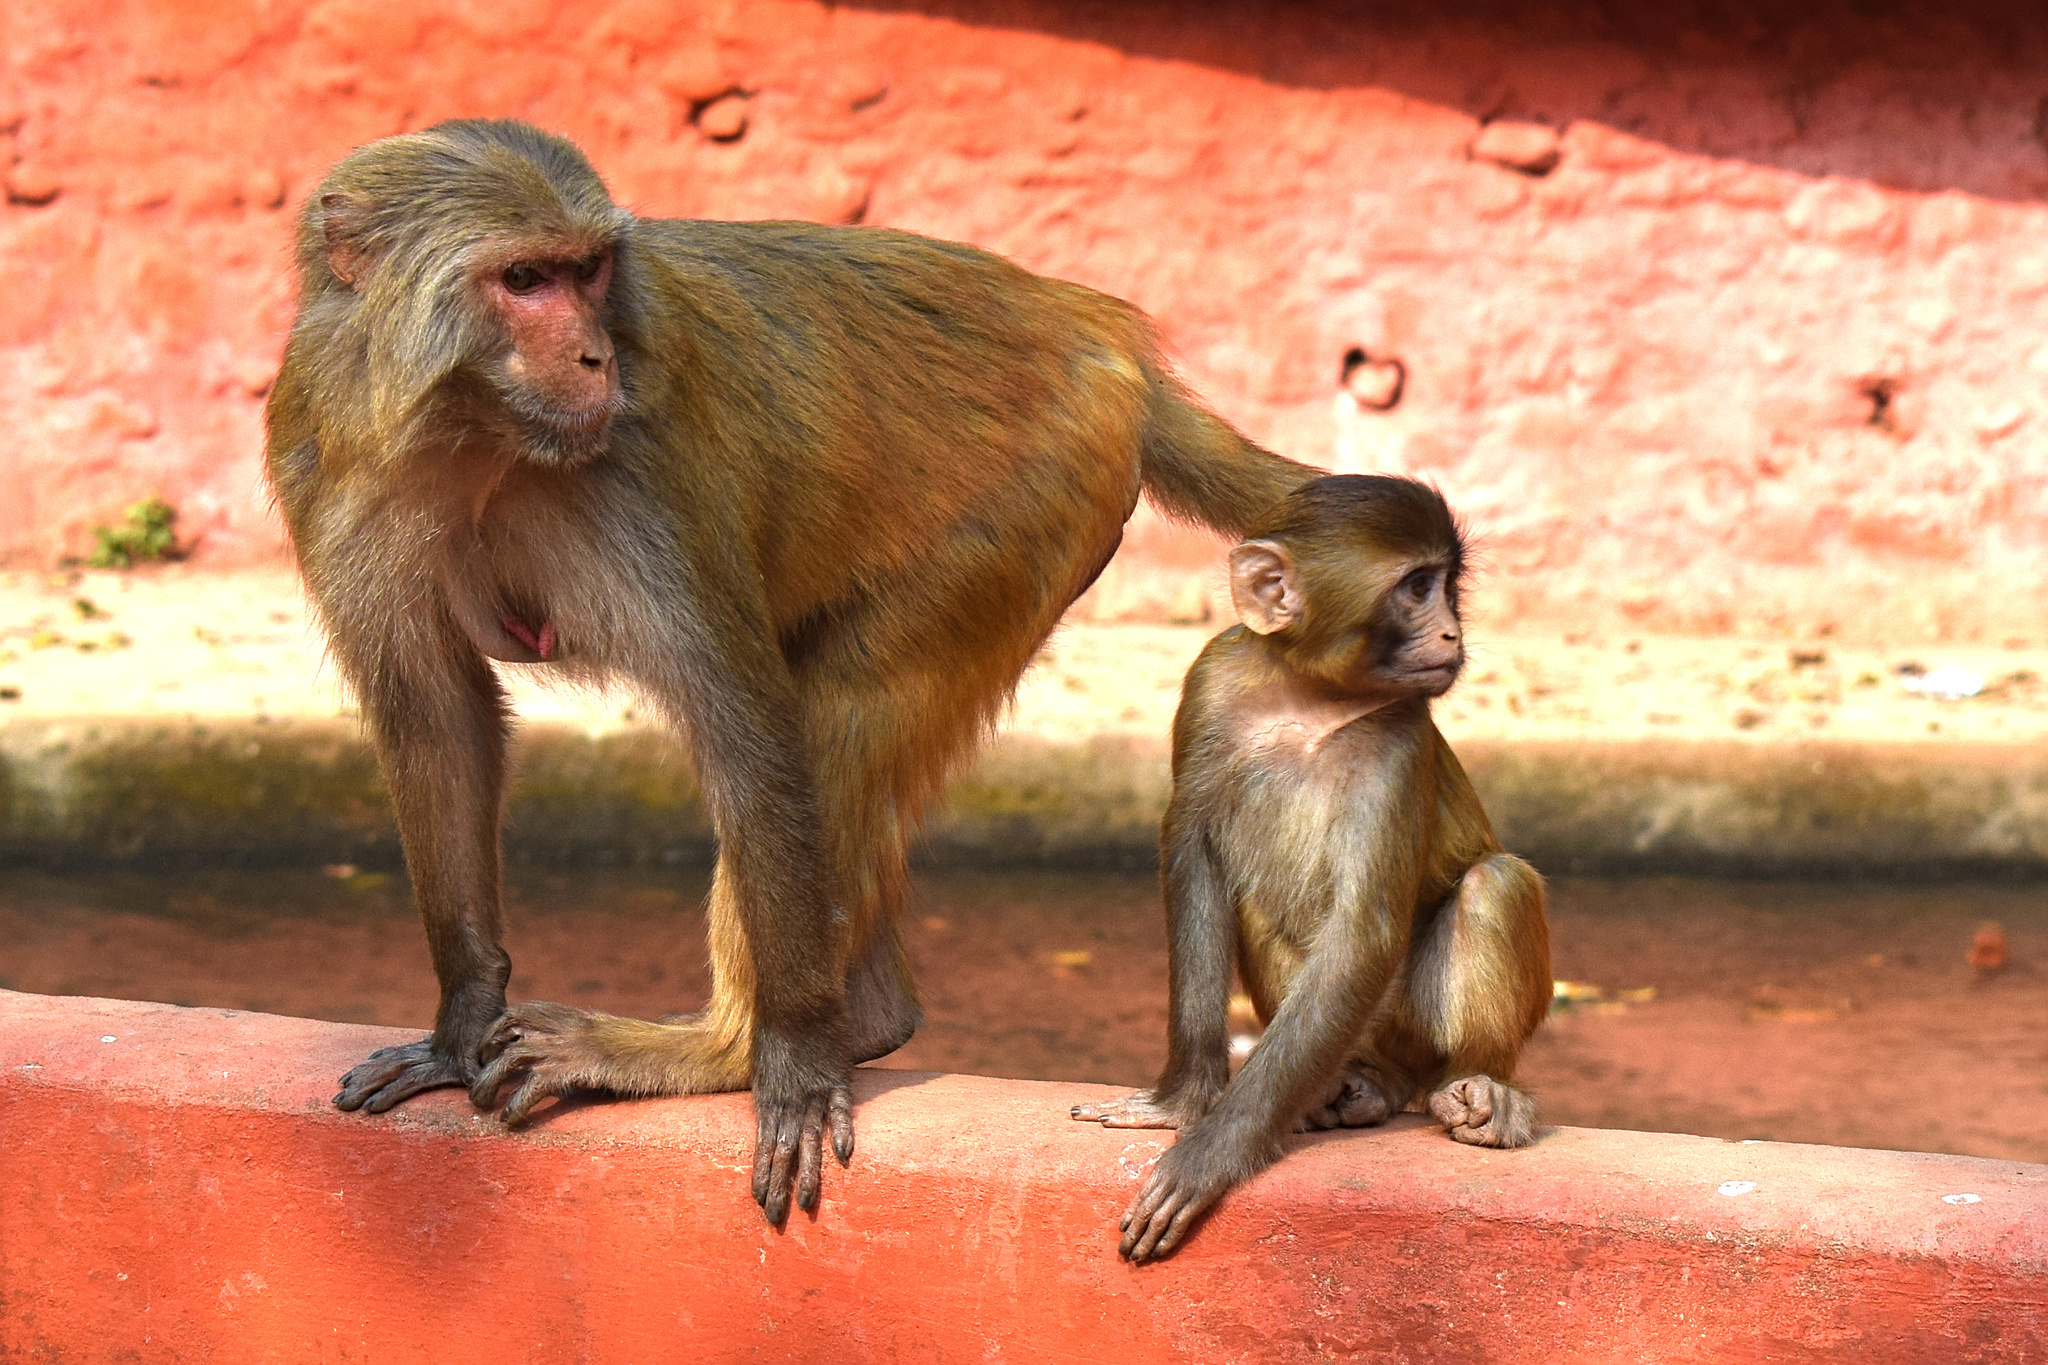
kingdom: Animalia
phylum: Chordata
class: Mammalia
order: Primates
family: Cercopithecidae
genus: Macaca
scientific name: Macaca mulatta
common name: Rhesus monkey
